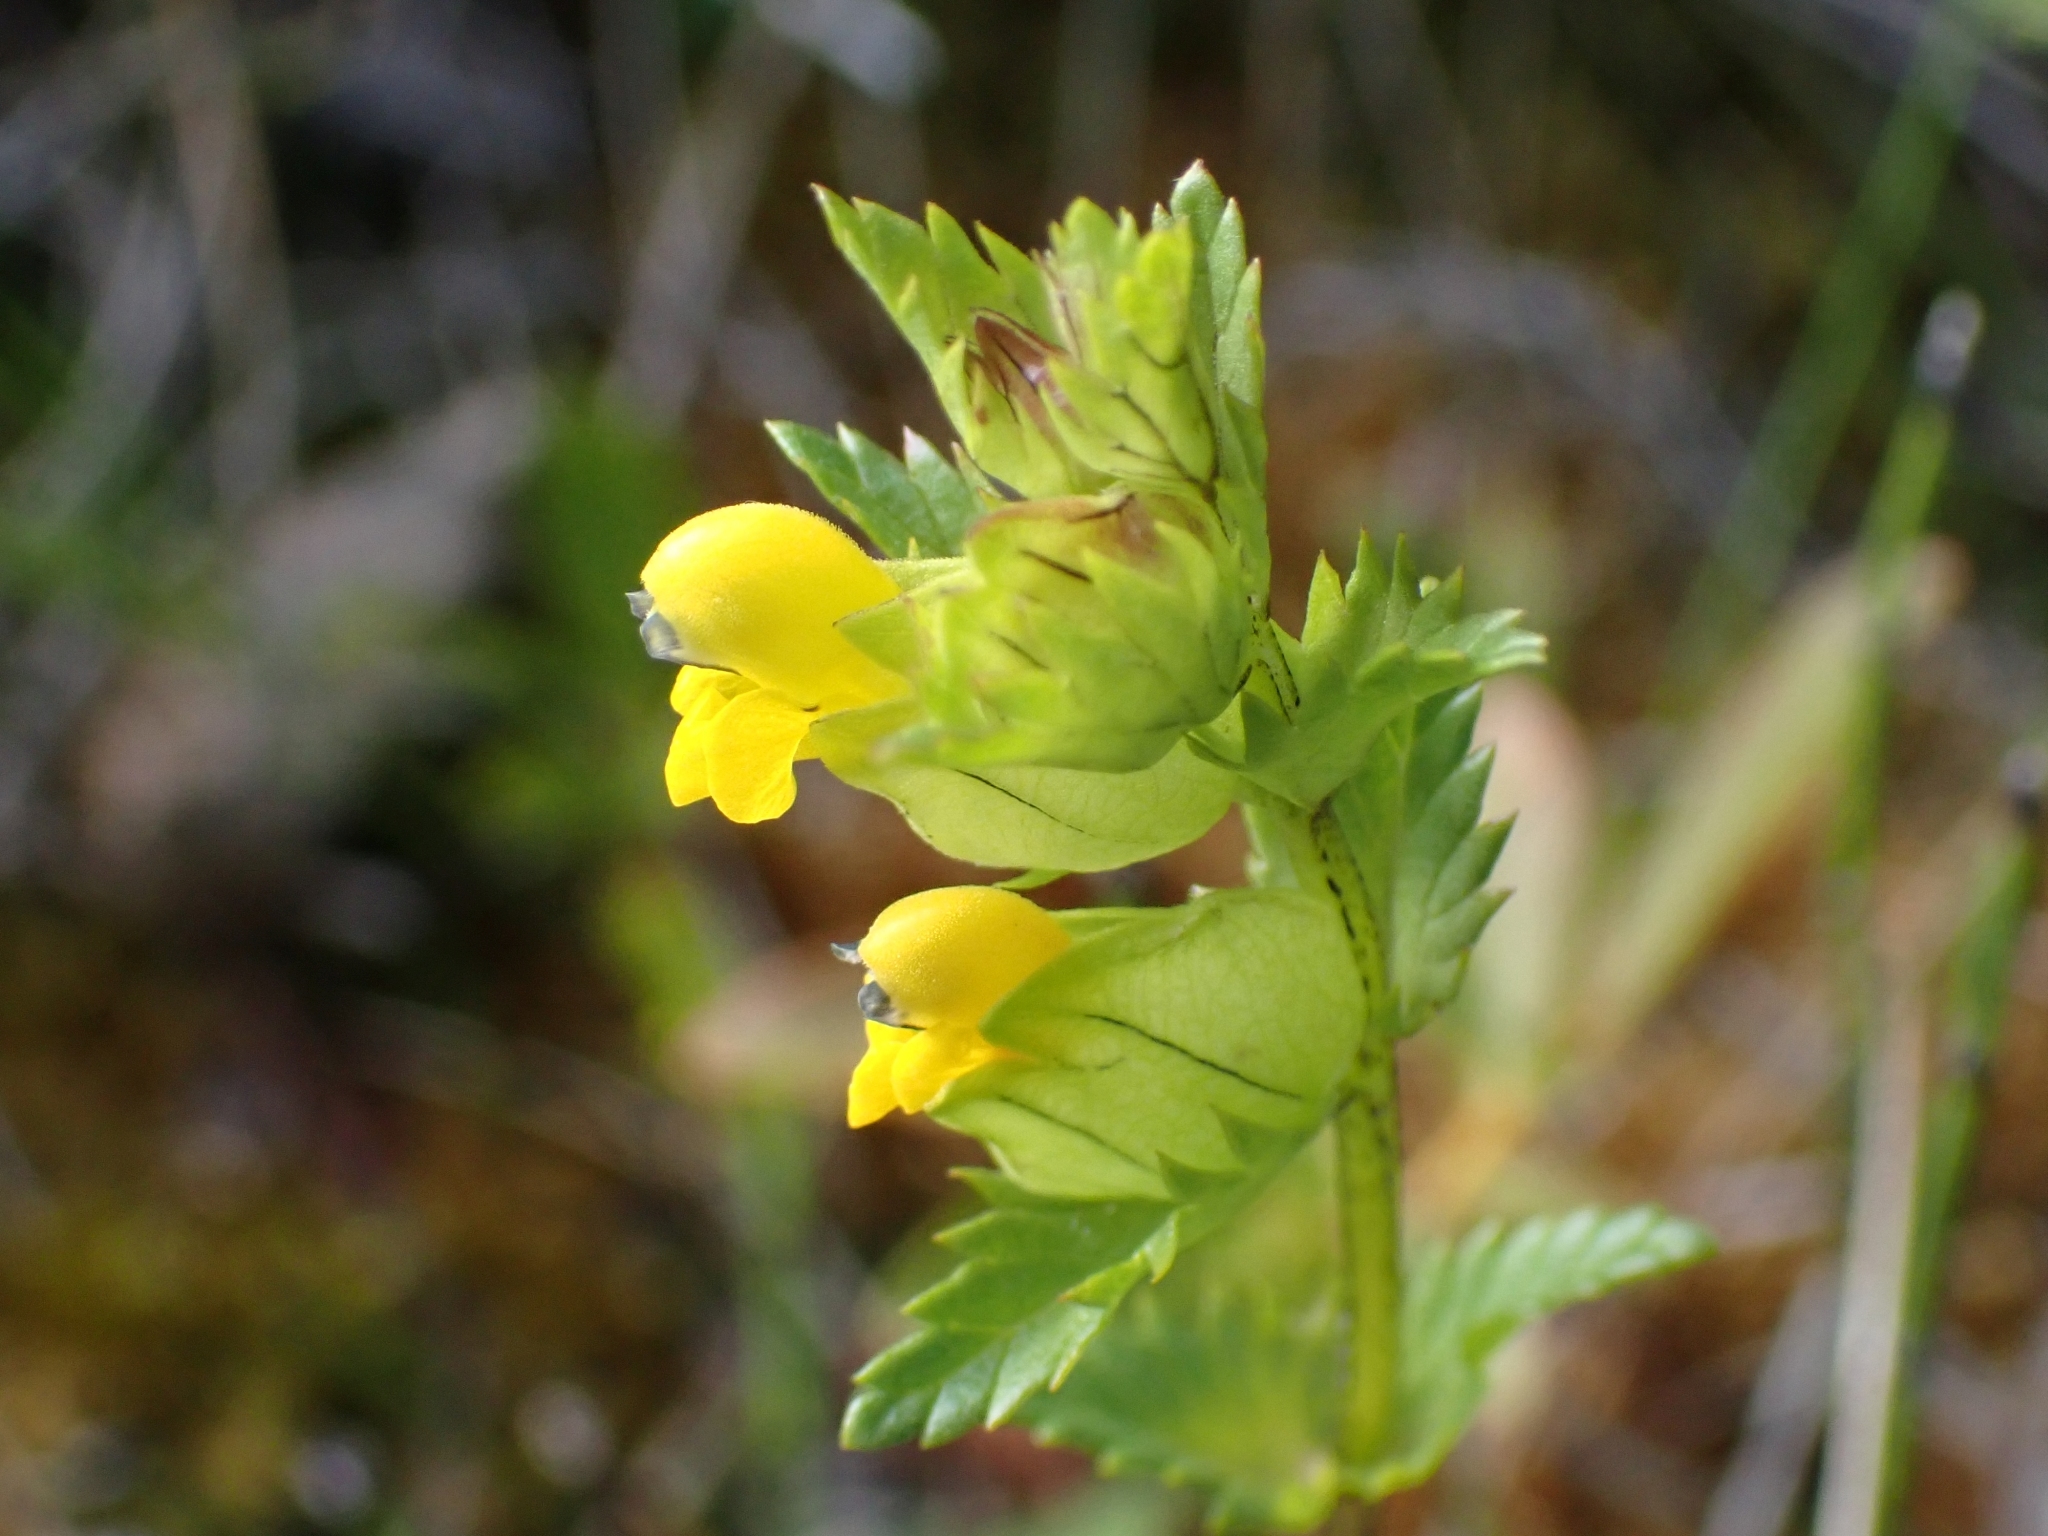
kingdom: Plantae
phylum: Tracheophyta
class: Magnoliopsida
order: Lamiales
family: Orobanchaceae
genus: Rhinanthus
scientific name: Rhinanthus minor
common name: Yellow-rattle
